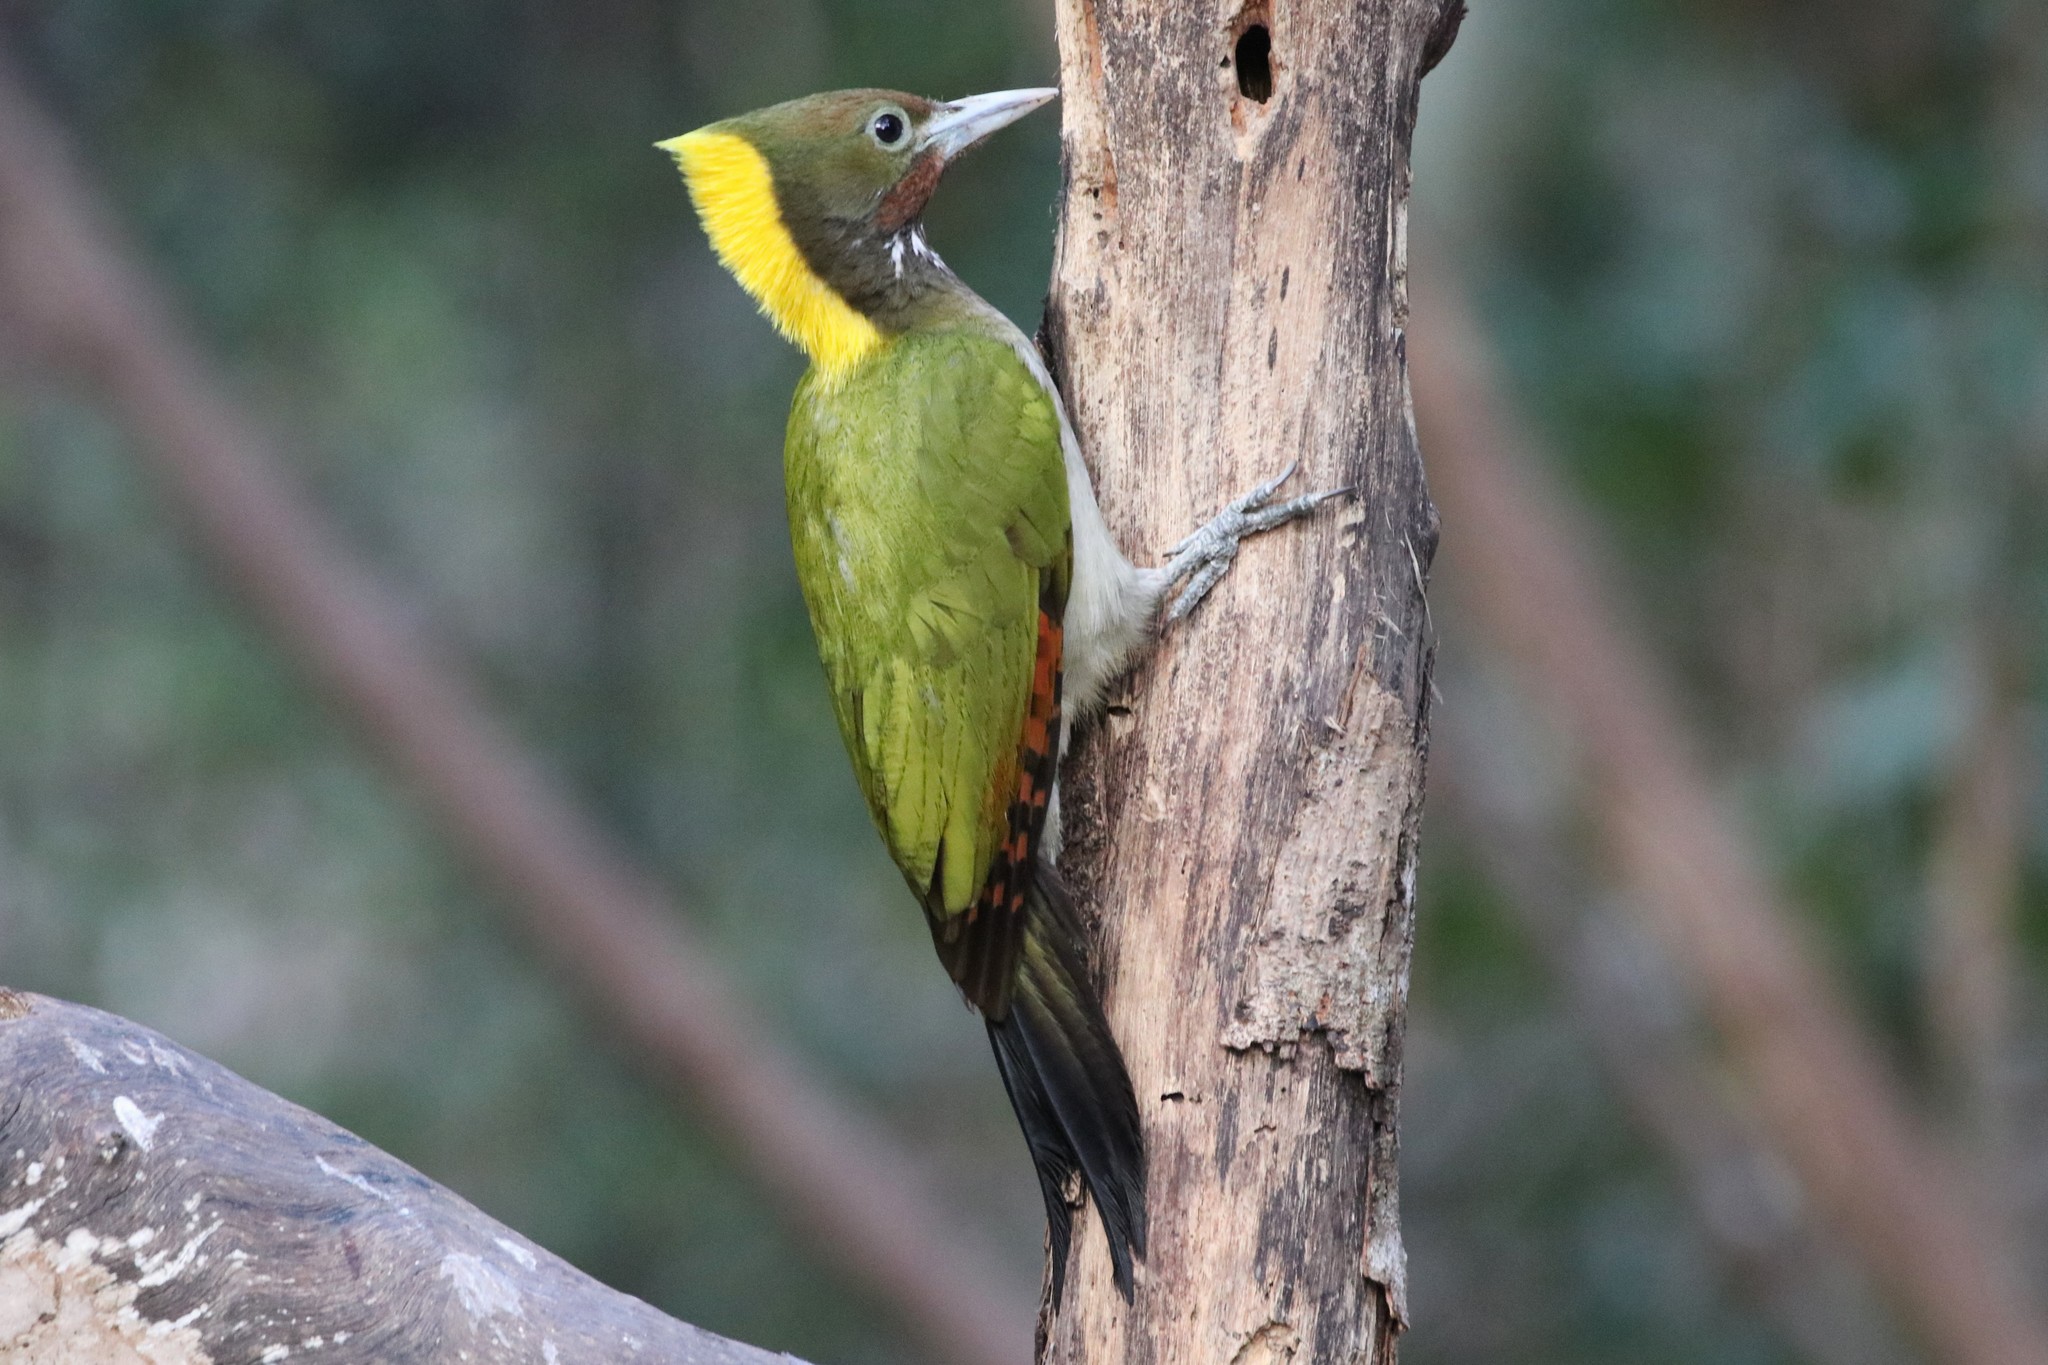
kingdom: Animalia
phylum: Chordata
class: Aves
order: Piciformes
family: Picidae
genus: Chrysophlegma
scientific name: Chrysophlegma flavinucha
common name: Greater yellownape
